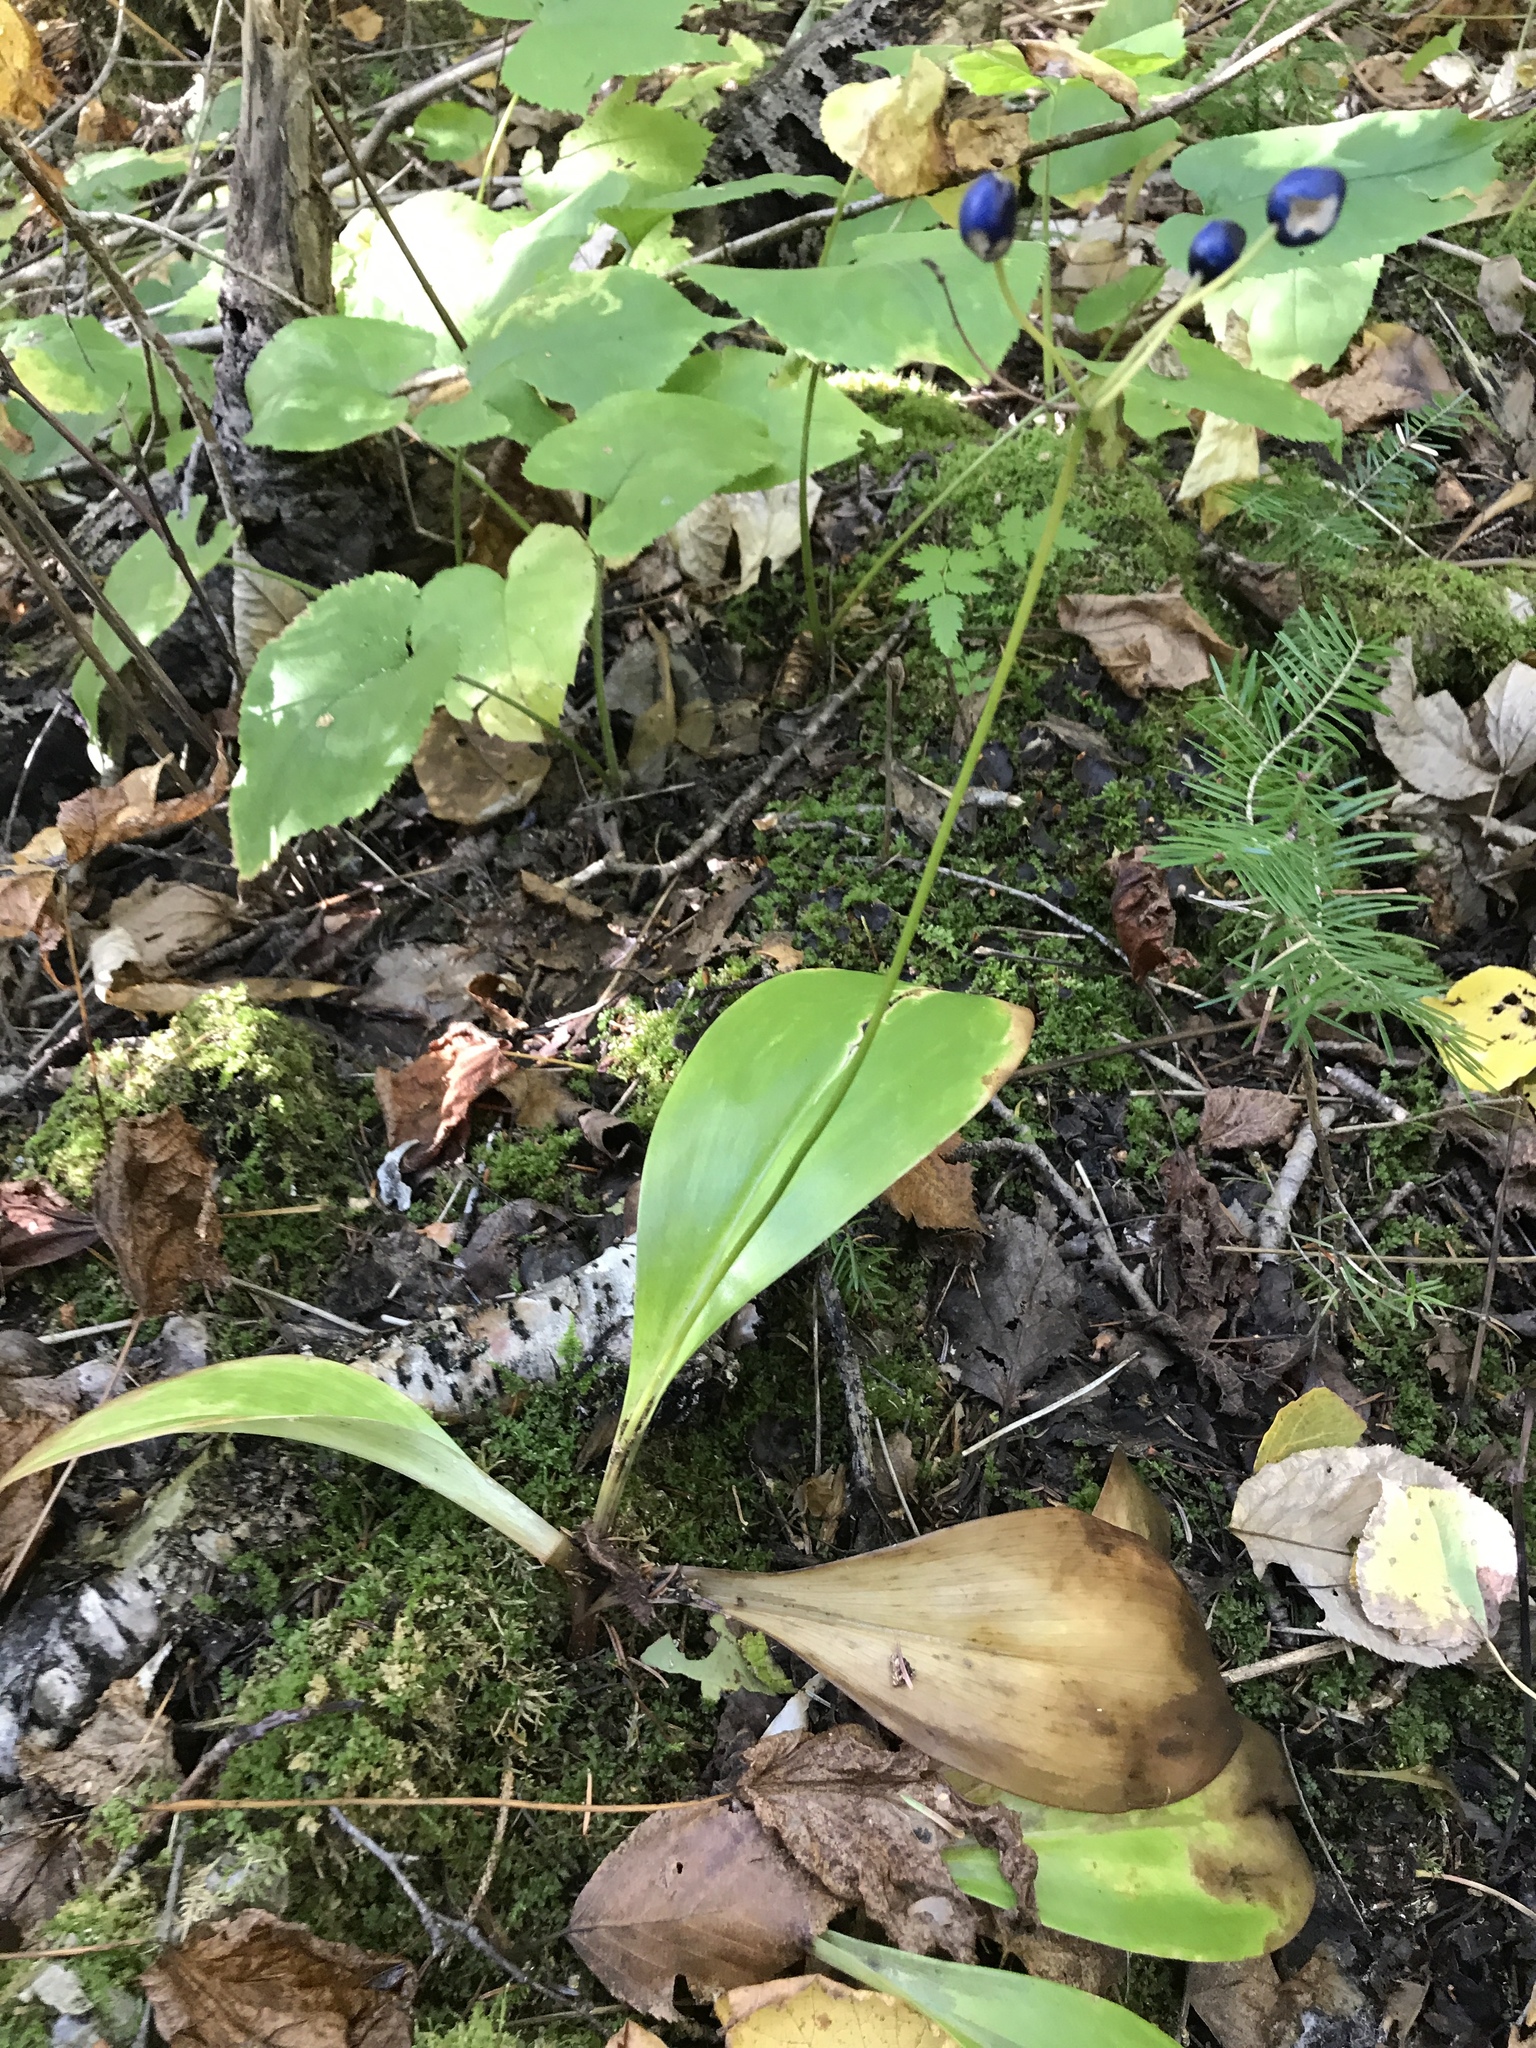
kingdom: Plantae
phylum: Tracheophyta
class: Liliopsida
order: Liliales
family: Liliaceae
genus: Clintonia
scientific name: Clintonia borealis
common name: Yellow clintonia
